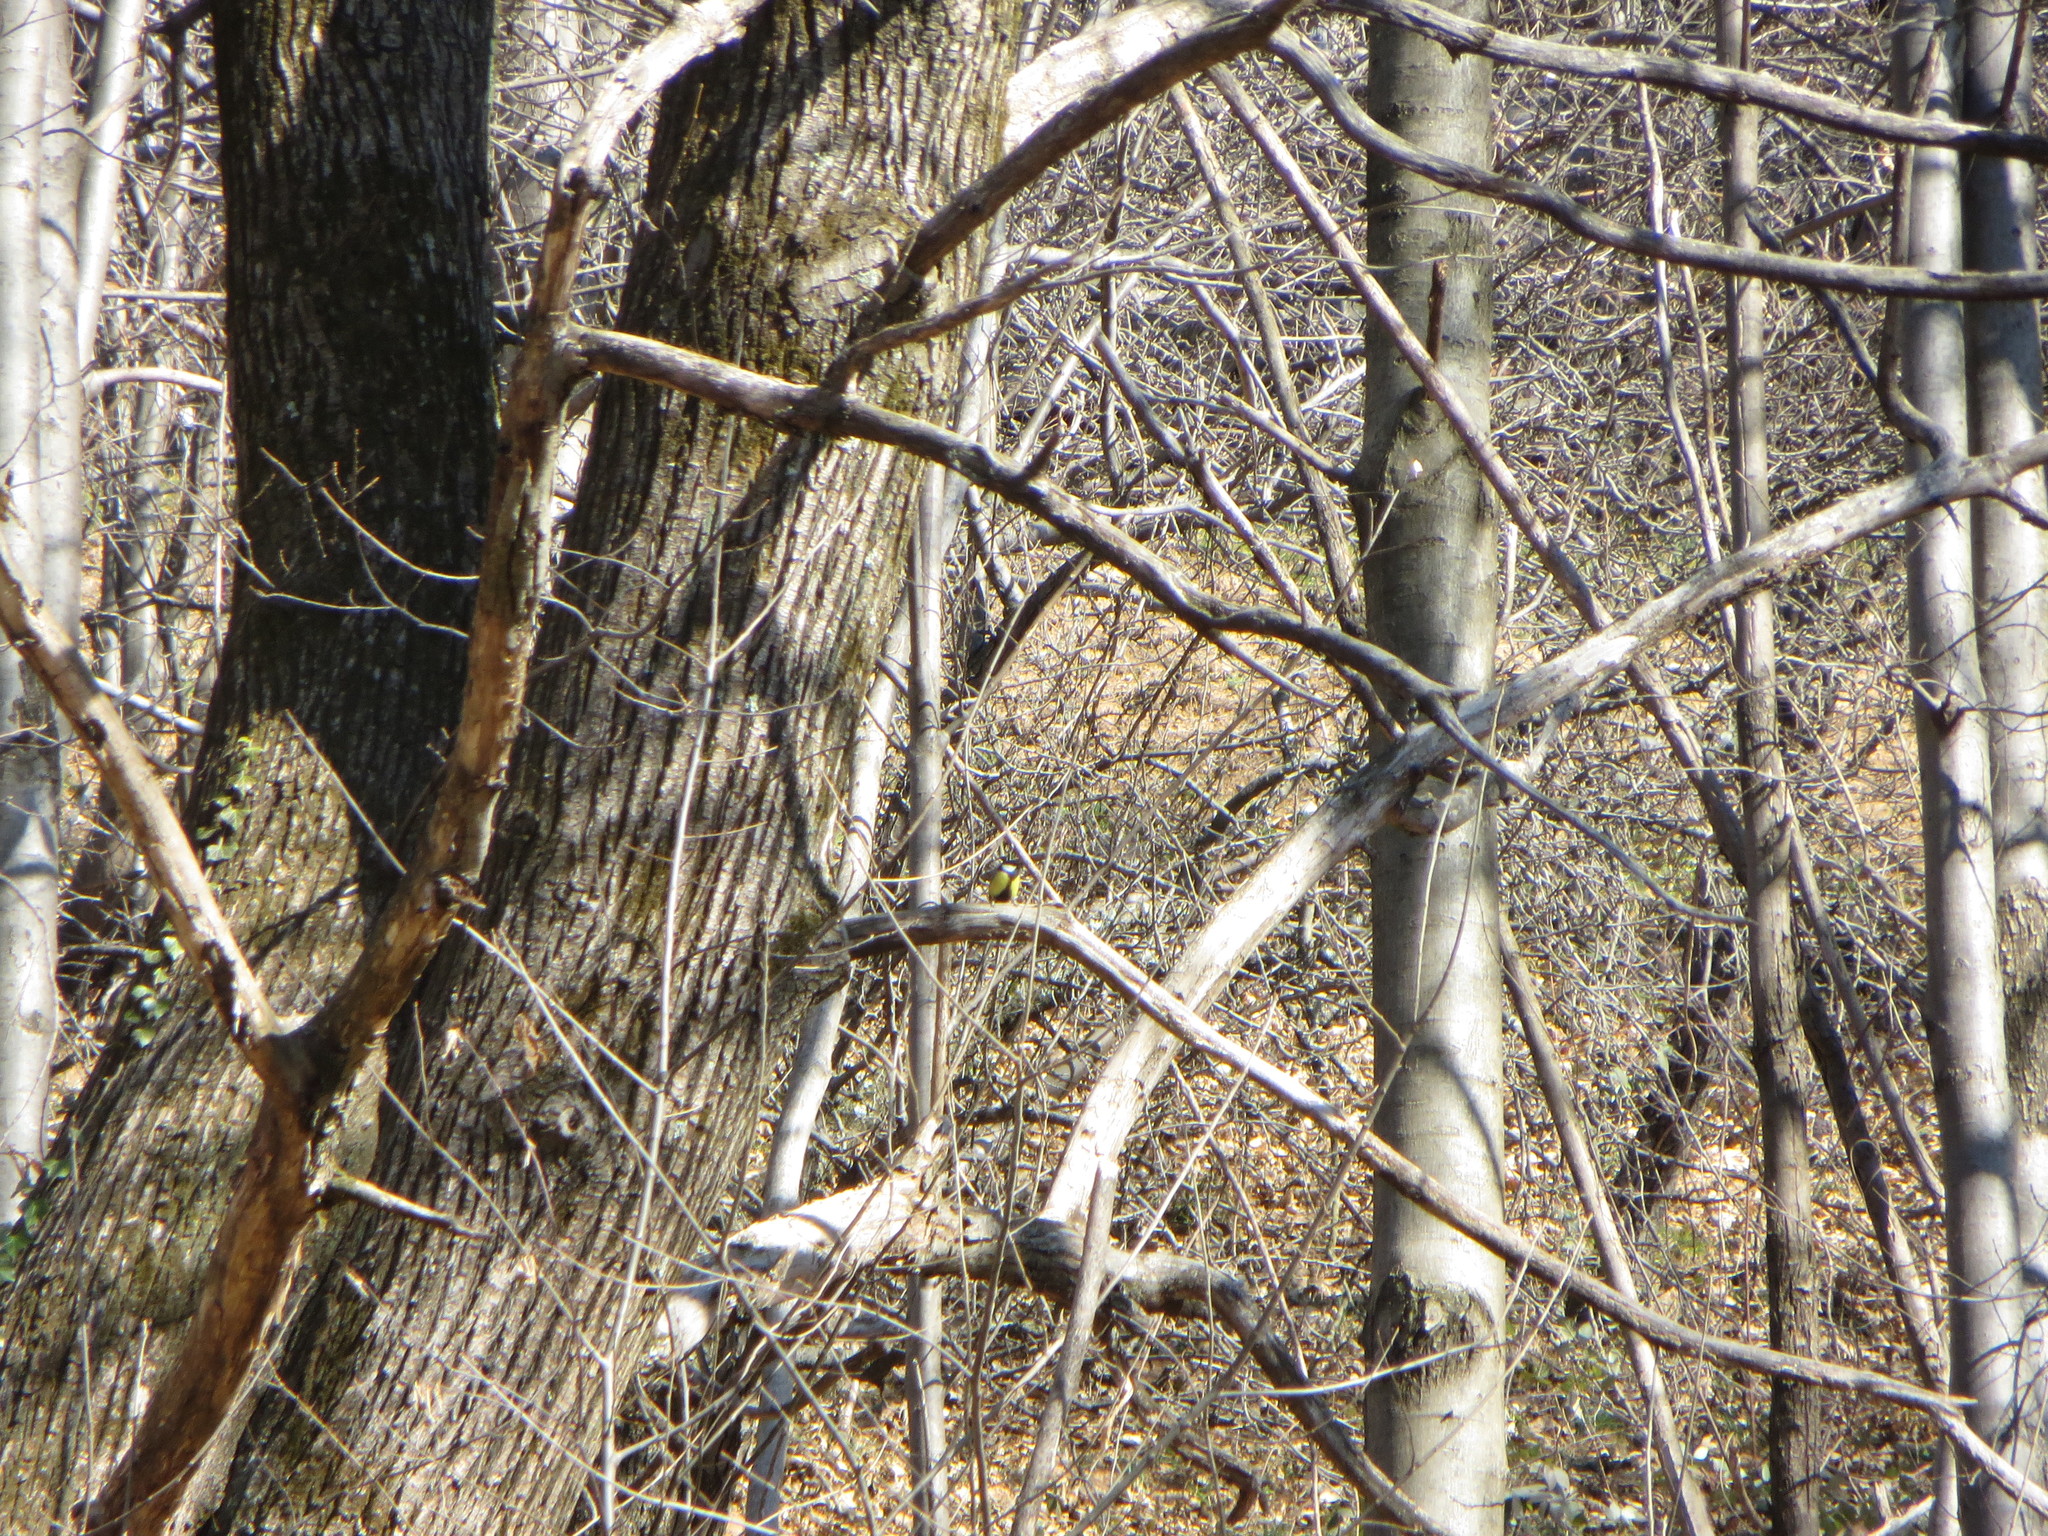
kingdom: Animalia
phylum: Chordata
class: Aves
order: Passeriformes
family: Paridae
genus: Parus
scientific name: Parus major
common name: Great tit
